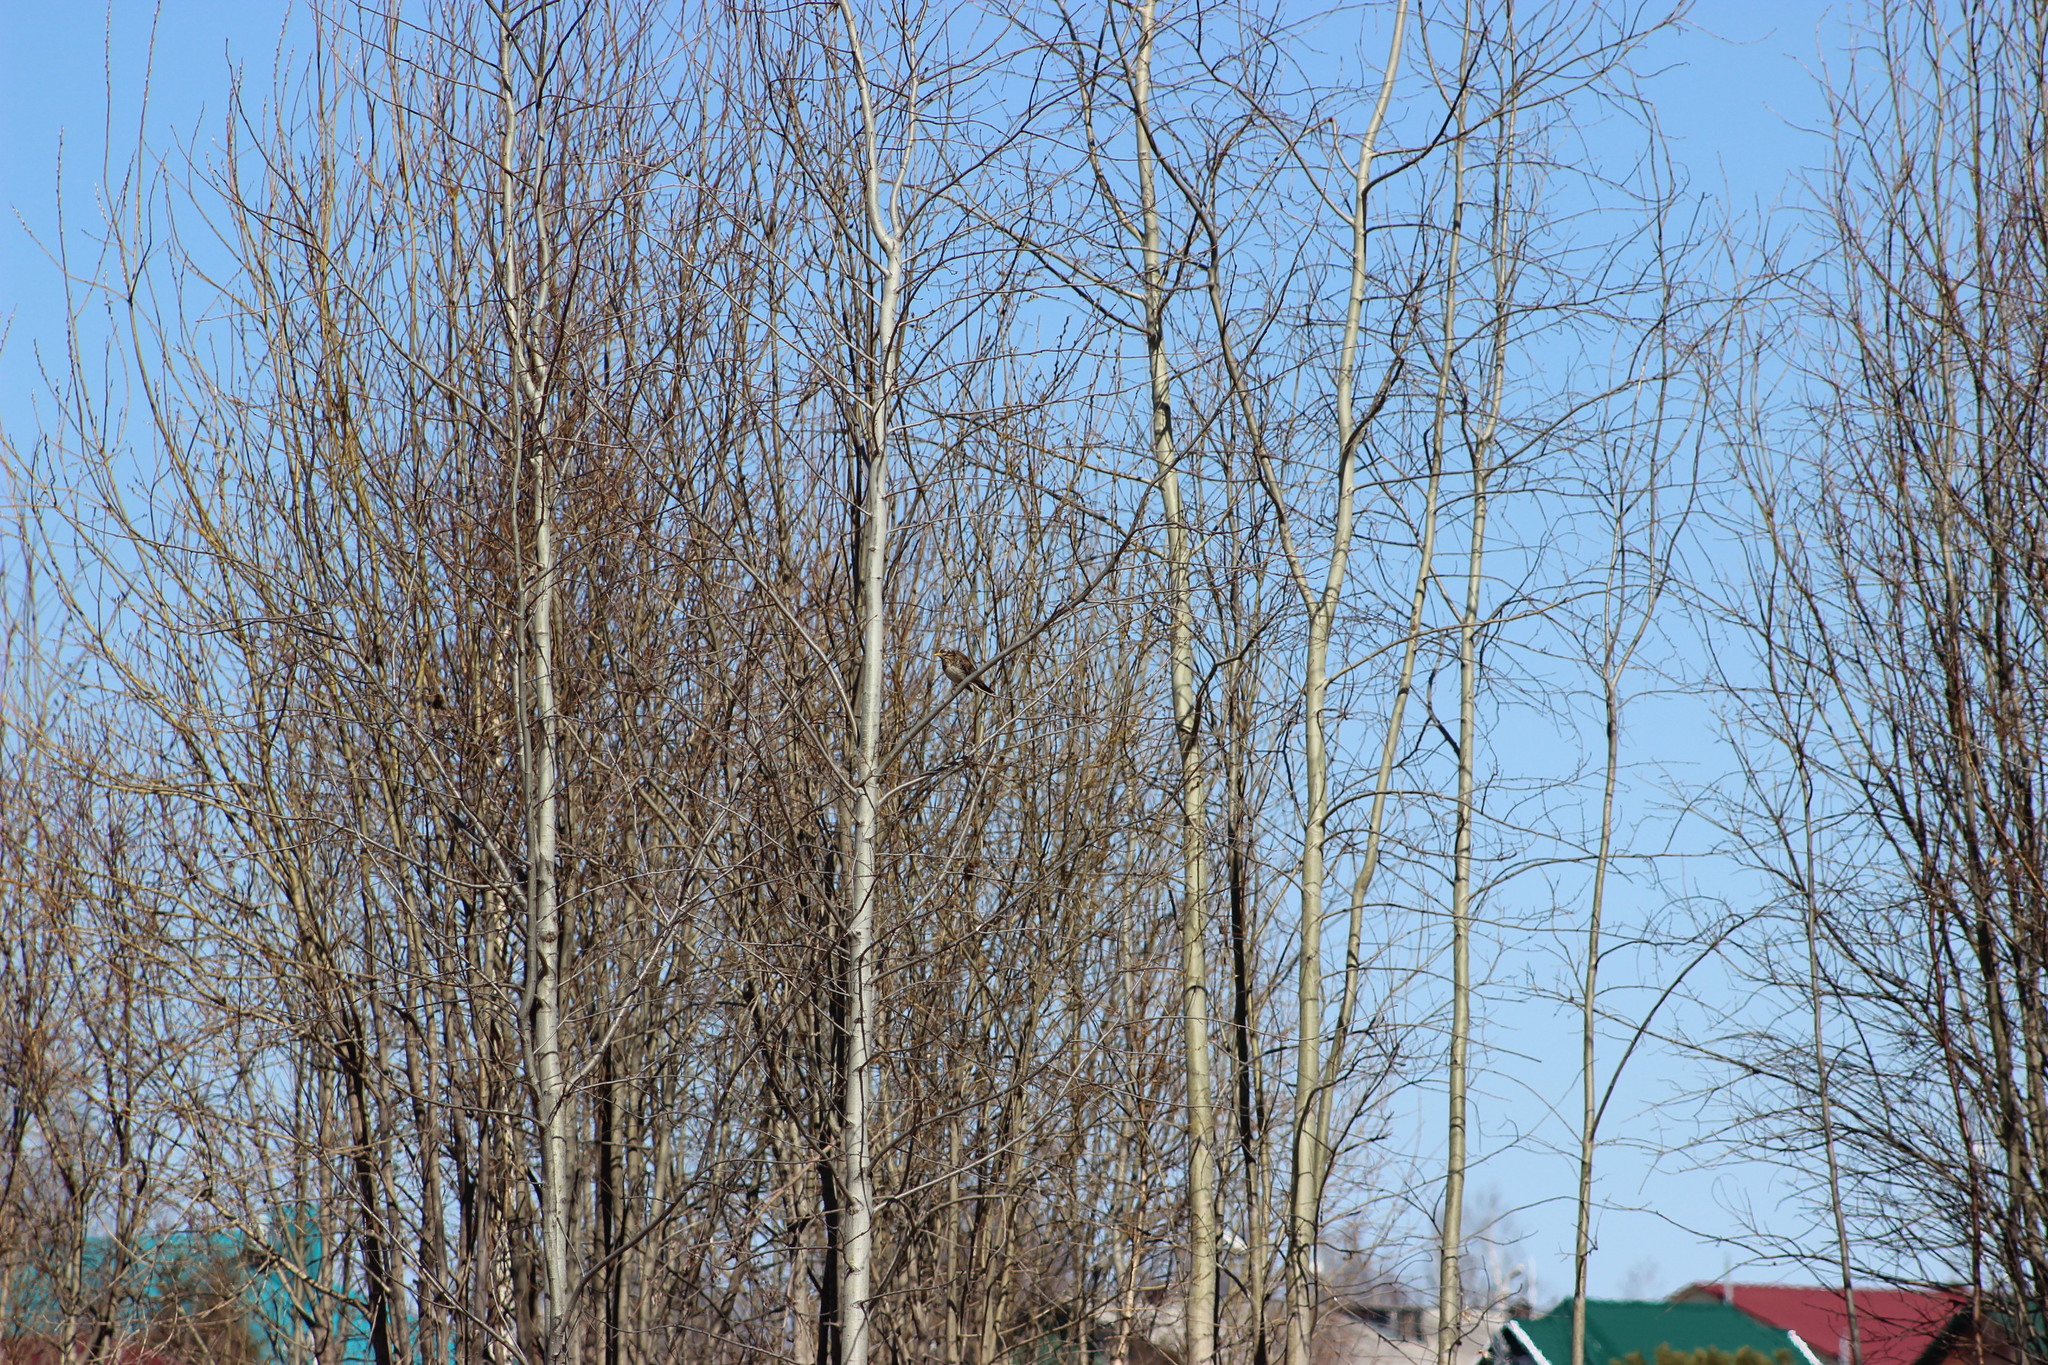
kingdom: Animalia
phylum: Chordata
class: Aves
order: Passeriformes
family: Turdidae
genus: Turdus
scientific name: Turdus pilaris
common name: Fieldfare
